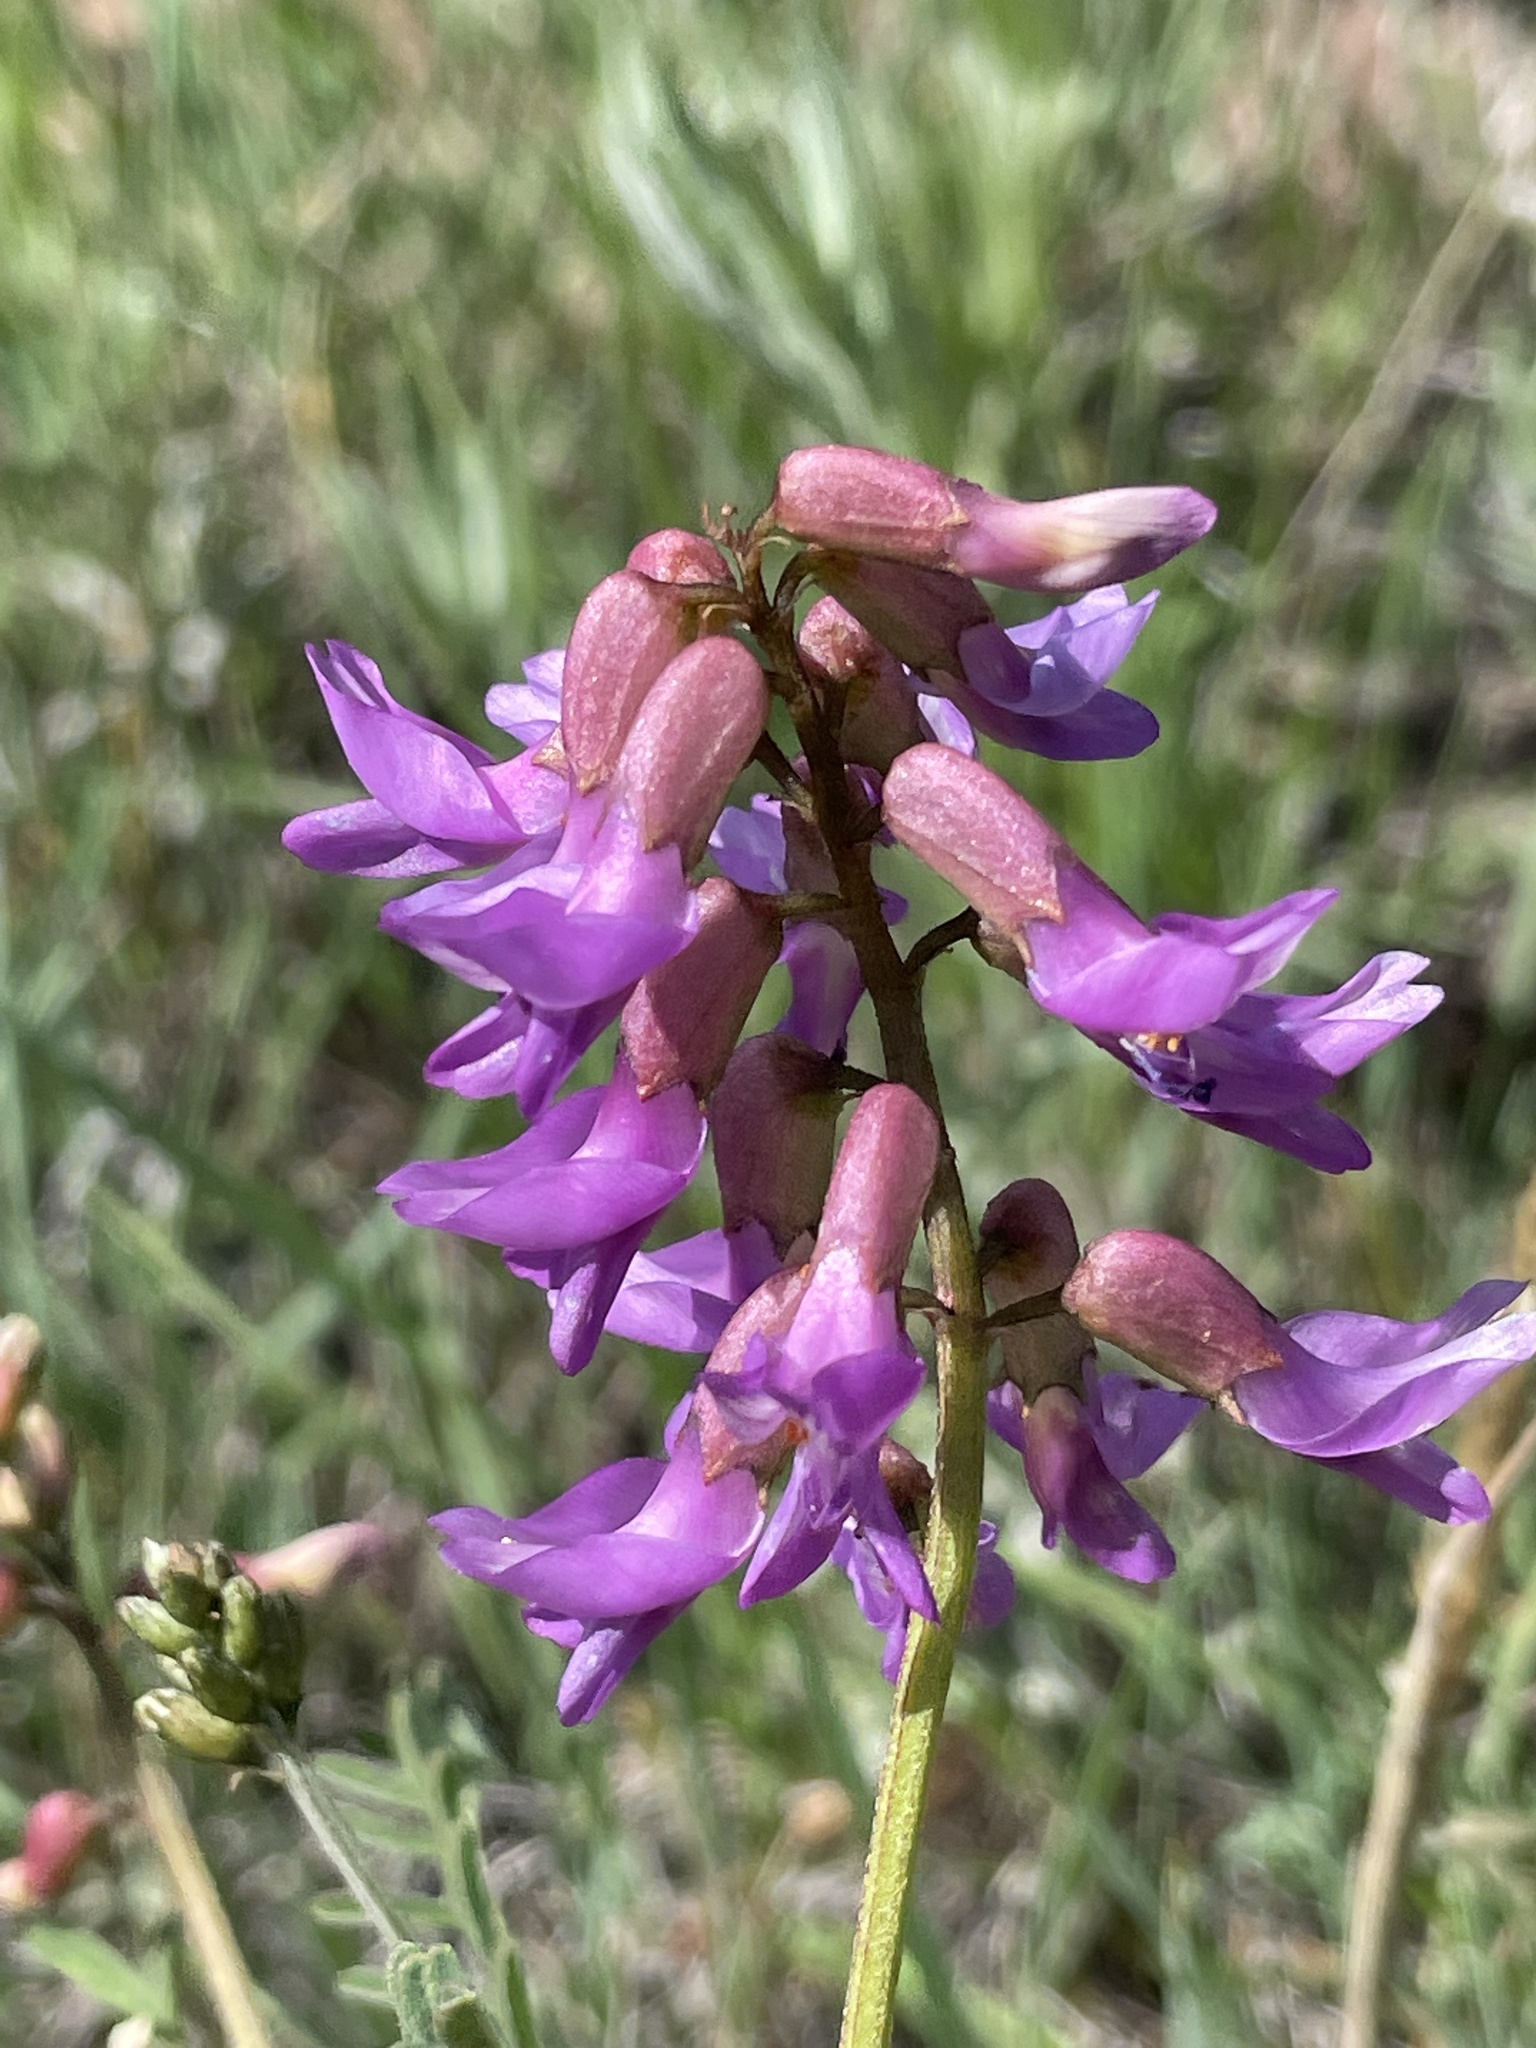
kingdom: Plantae
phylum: Tracheophyta
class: Magnoliopsida
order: Fabales
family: Fabaceae
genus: Astragalus
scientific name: Astragalus hallii
